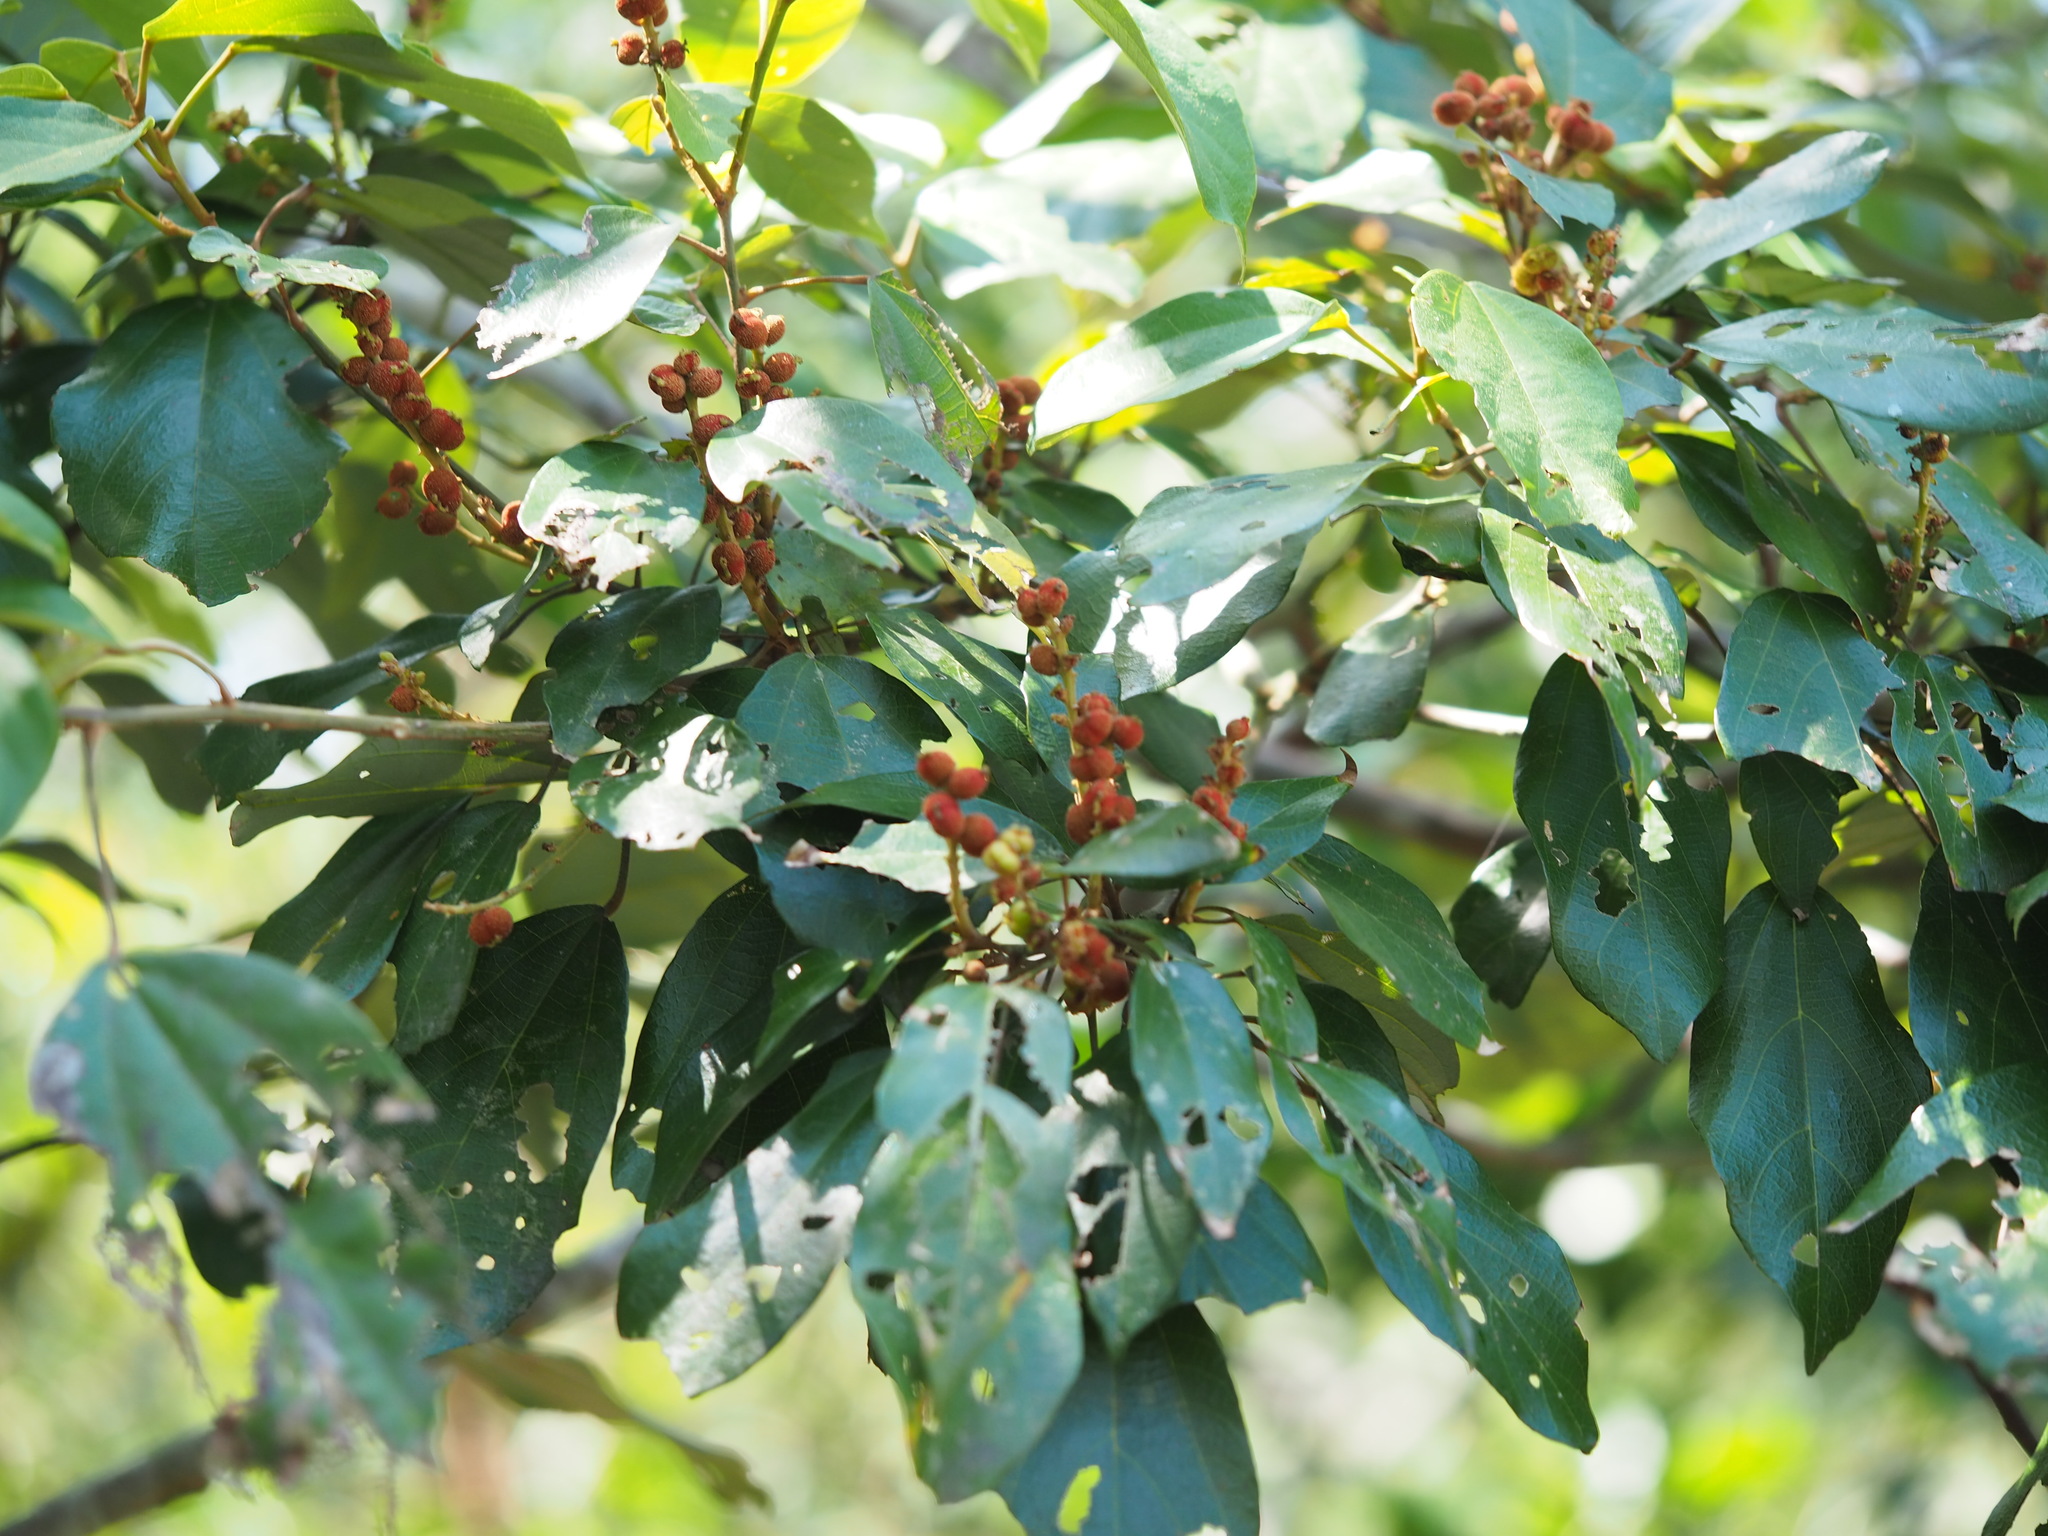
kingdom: Plantae
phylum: Tracheophyta
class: Magnoliopsida
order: Malpighiales
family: Euphorbiaceae
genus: Mallotus
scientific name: Mallotus philippensis
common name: Kamala tree
